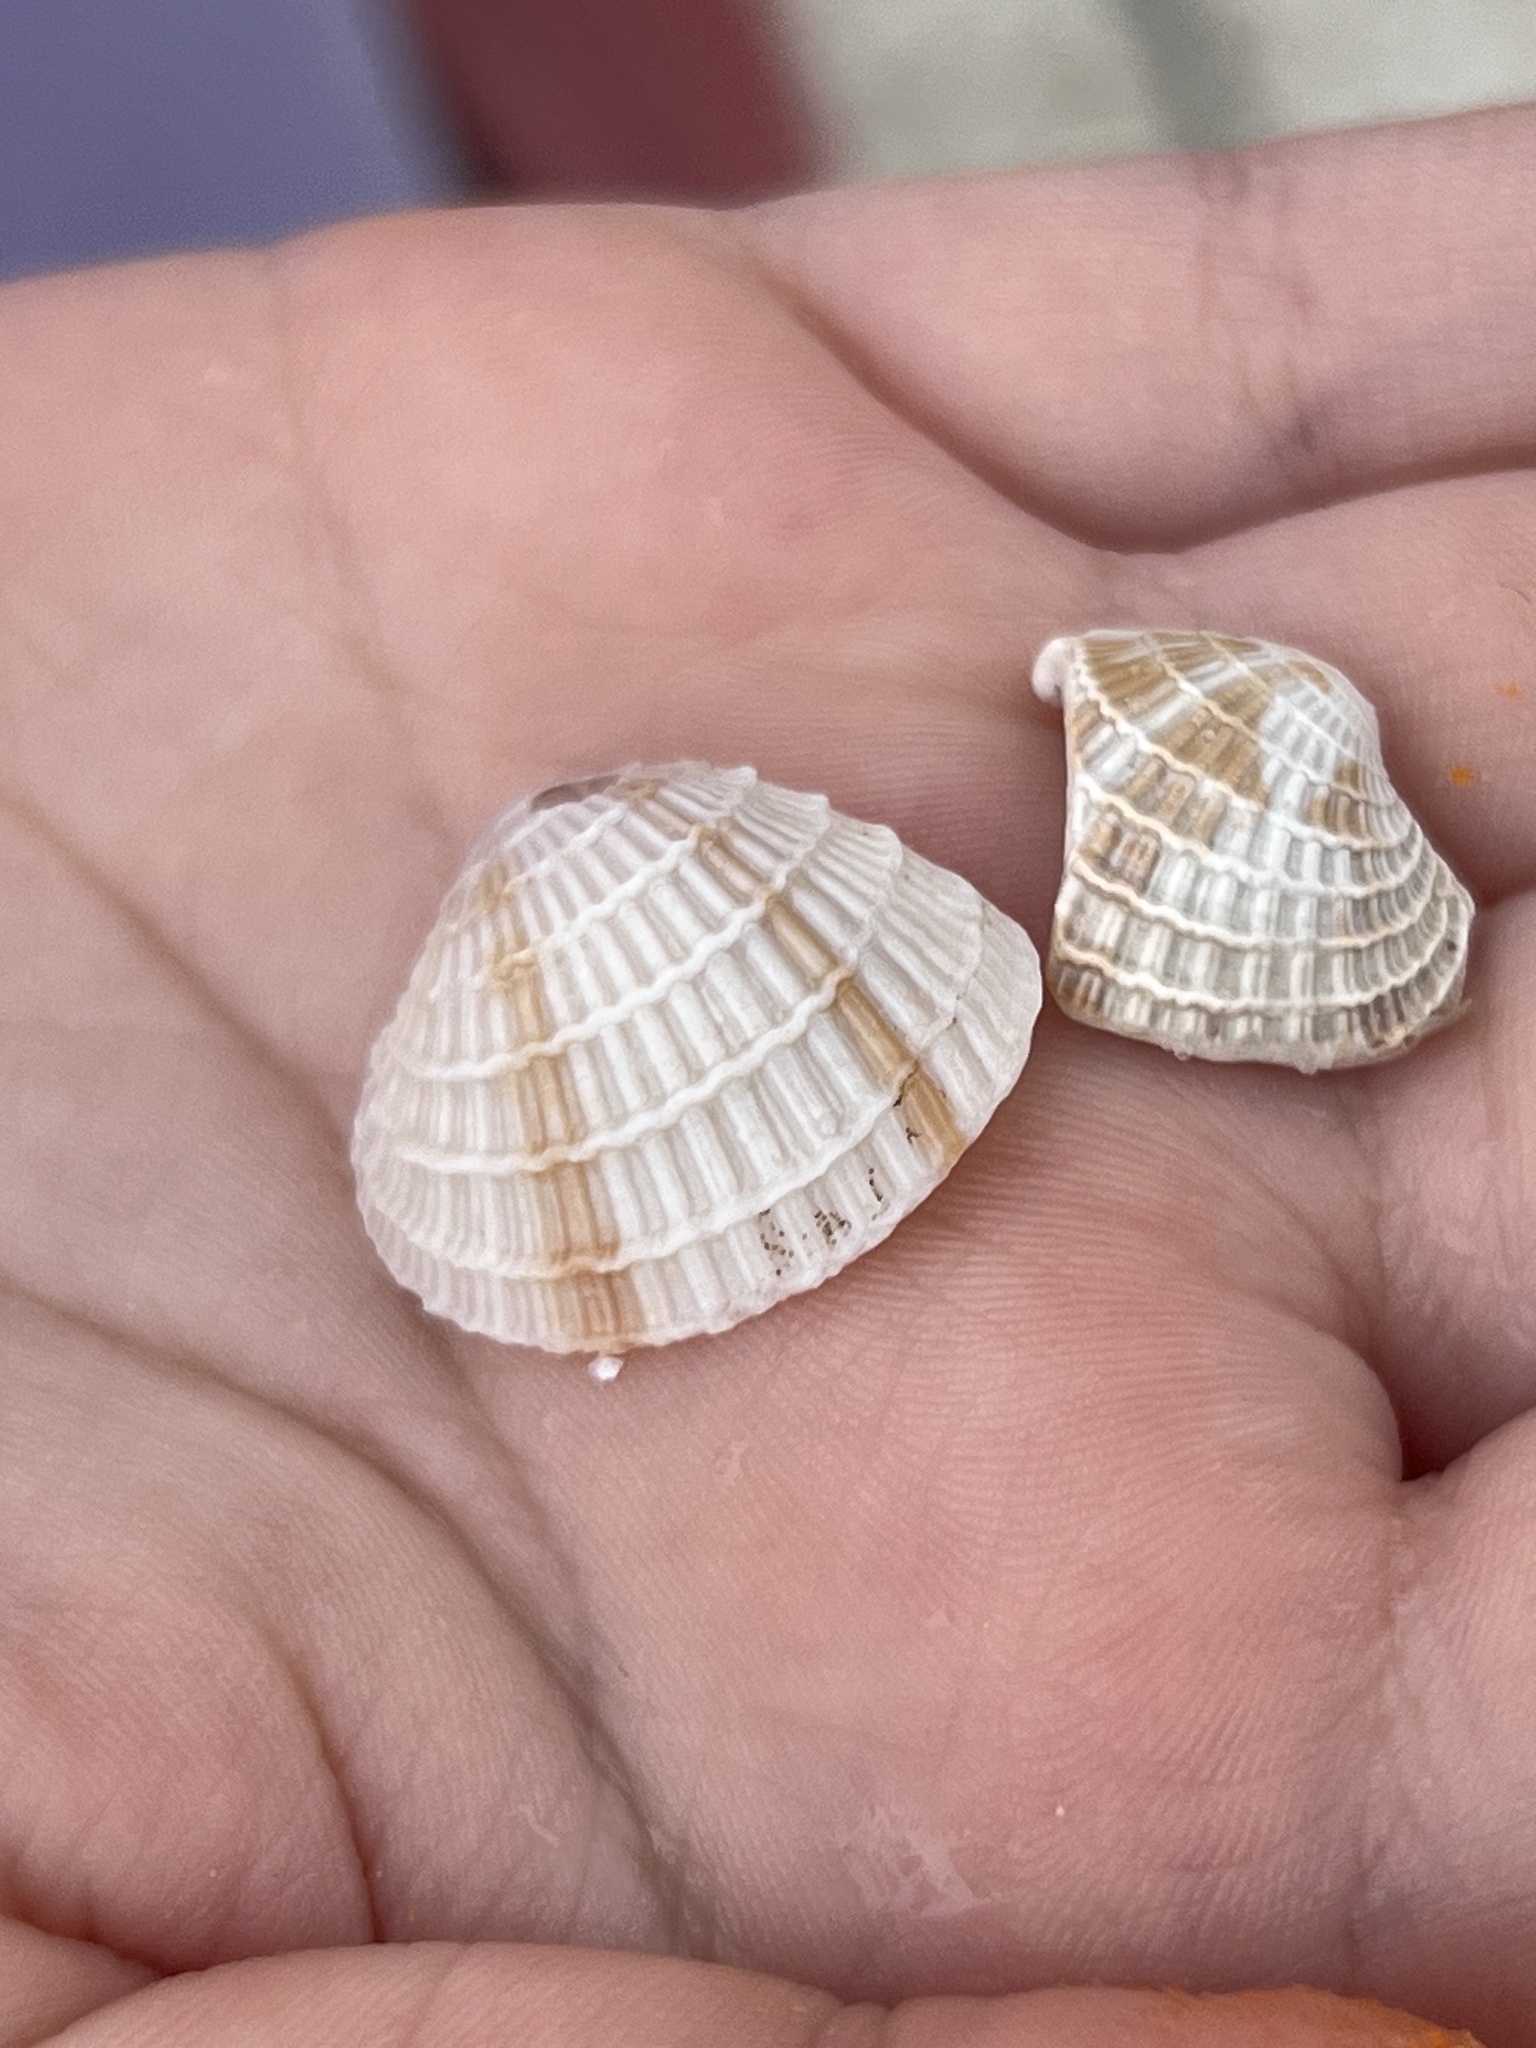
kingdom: Animalia
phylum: Mollusca
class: Bivalvia
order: Venerida
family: Veneridae
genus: Chione
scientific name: Chione elevata
